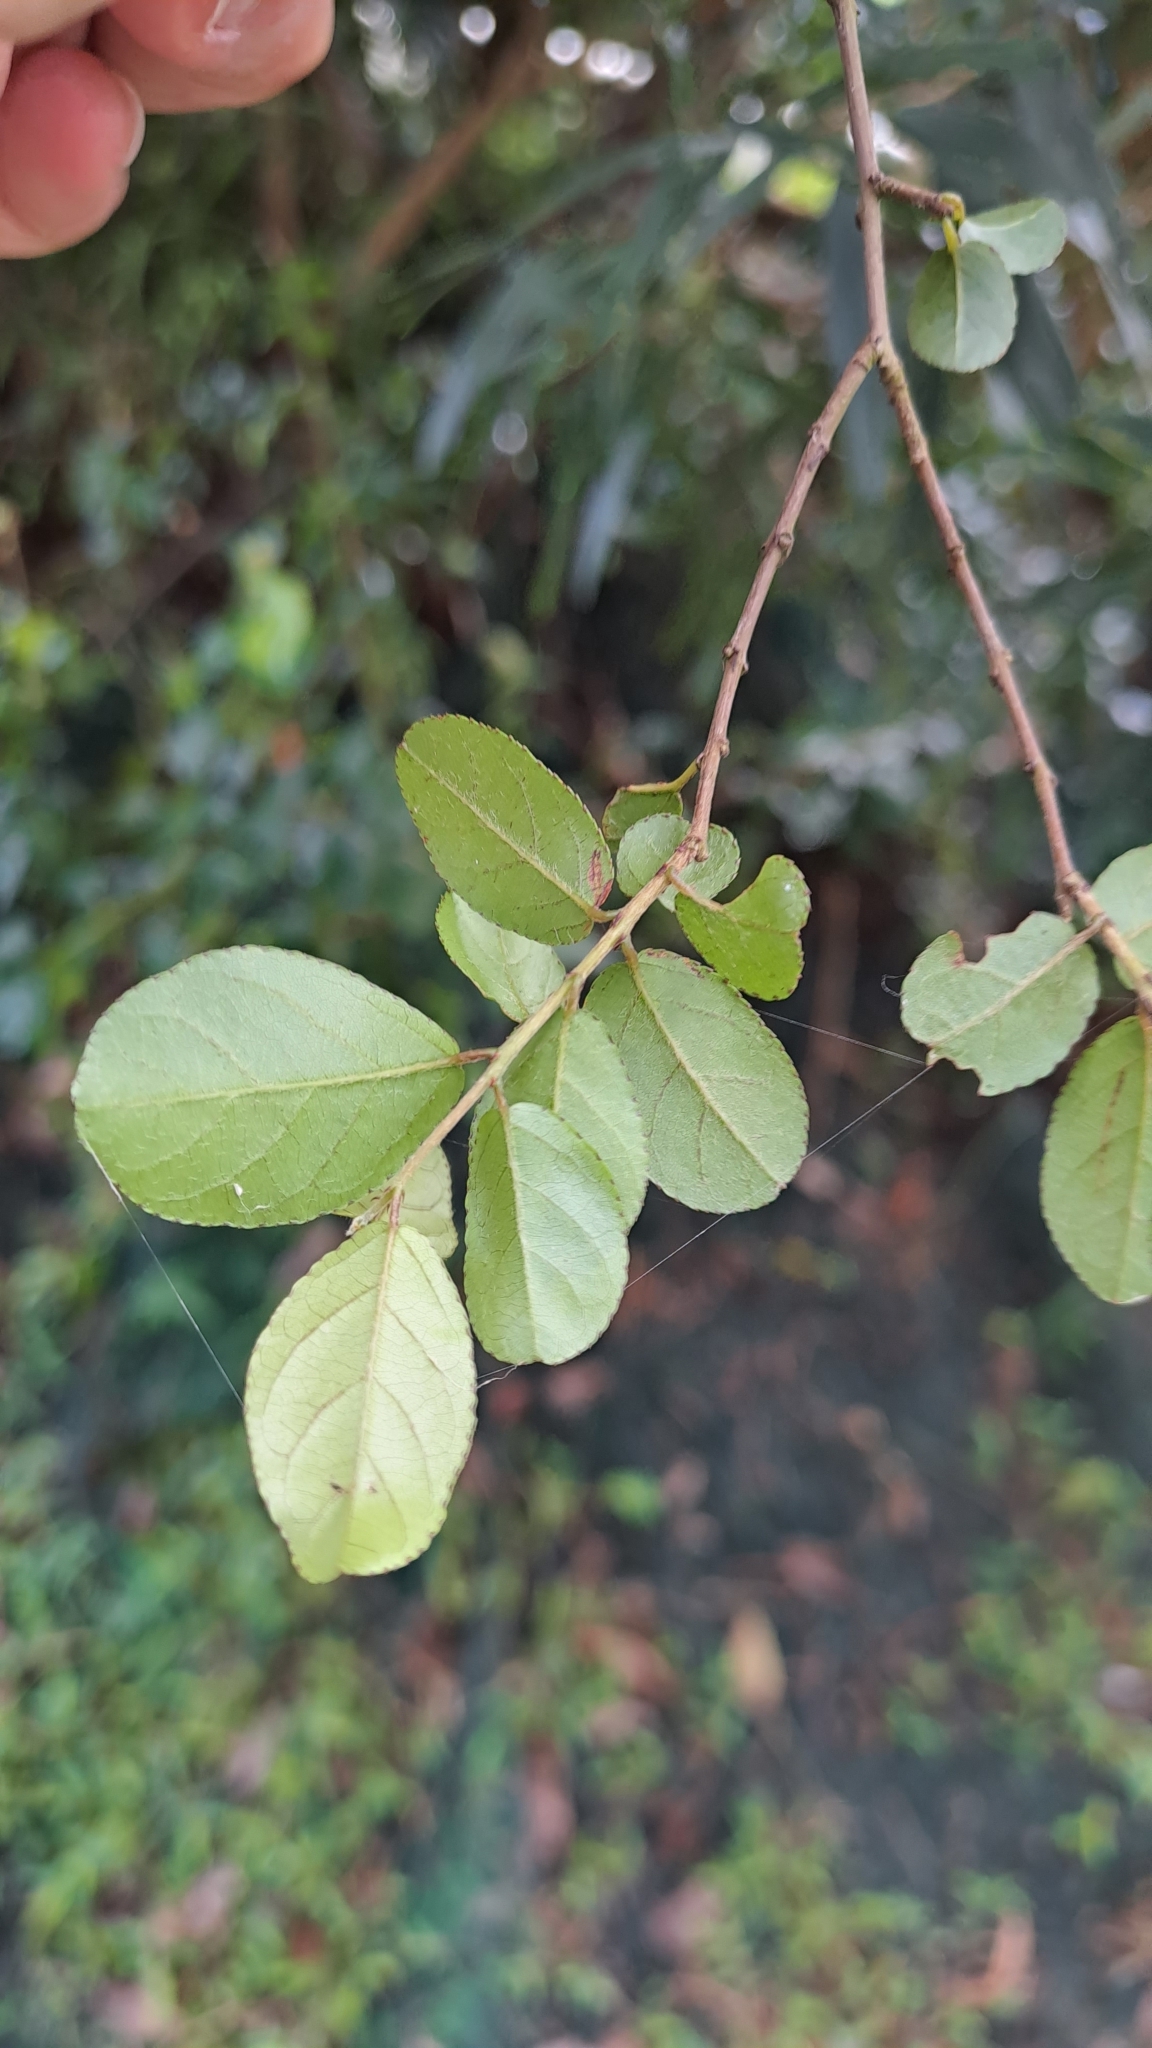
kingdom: Plantae
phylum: Tracheophyta
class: Magnoliopsida
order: Rosales
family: Rhamnaceae
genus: Sageretia
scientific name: Sageretia thea
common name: Pauper's-tea
